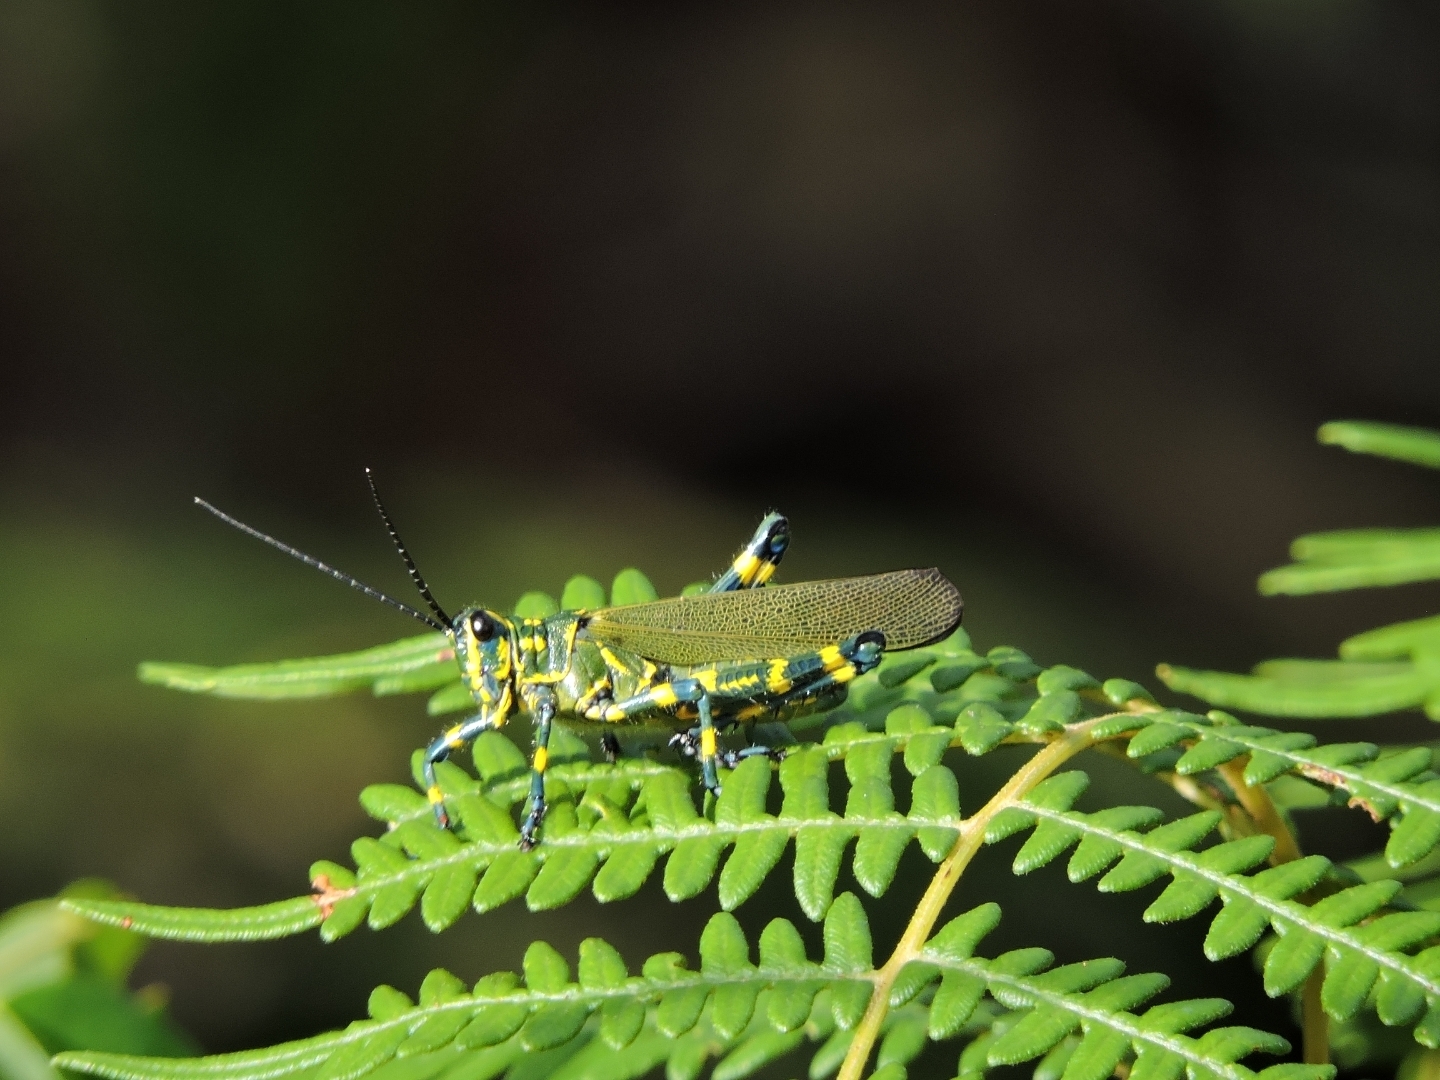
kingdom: Animalia
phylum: Arthropoda
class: Insecta
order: Orthoptera
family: Romaleidae
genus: Chromacris
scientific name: Chromacris speciosa
